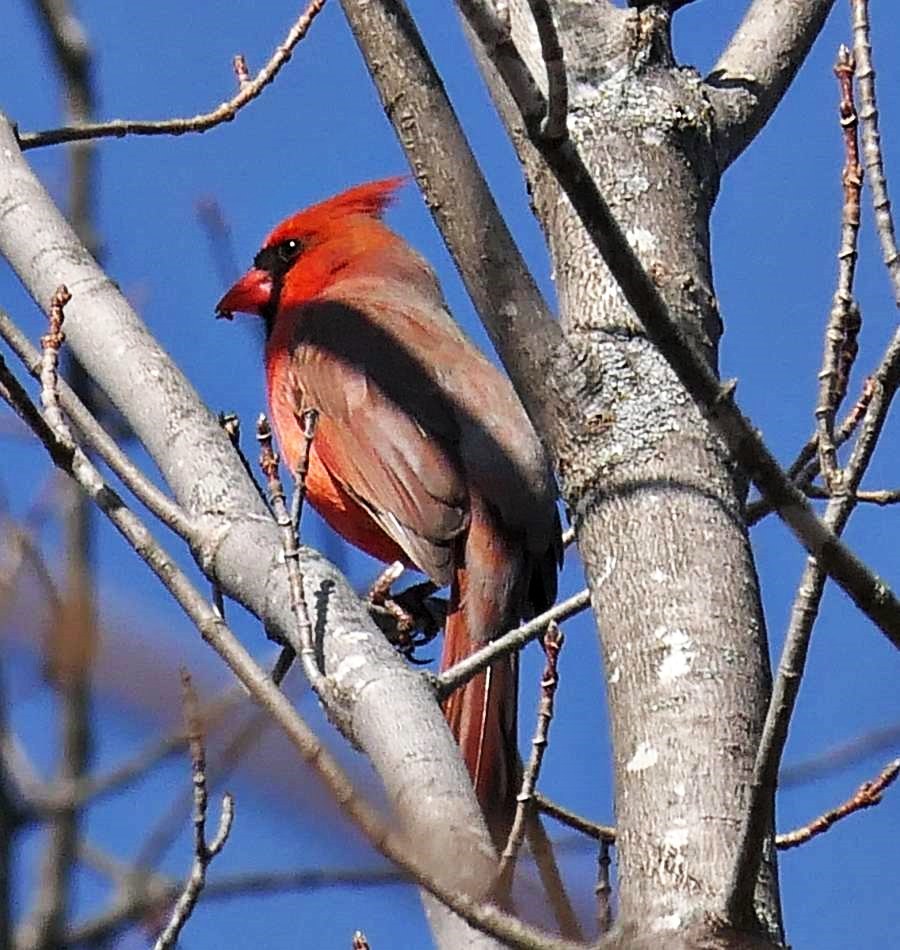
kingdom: Animalia
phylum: Chordata
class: Aves
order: Passeriformes
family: Cardinalidae
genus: Cardinalis
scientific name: Cardinalis cardinalis
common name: Northern cardinal
